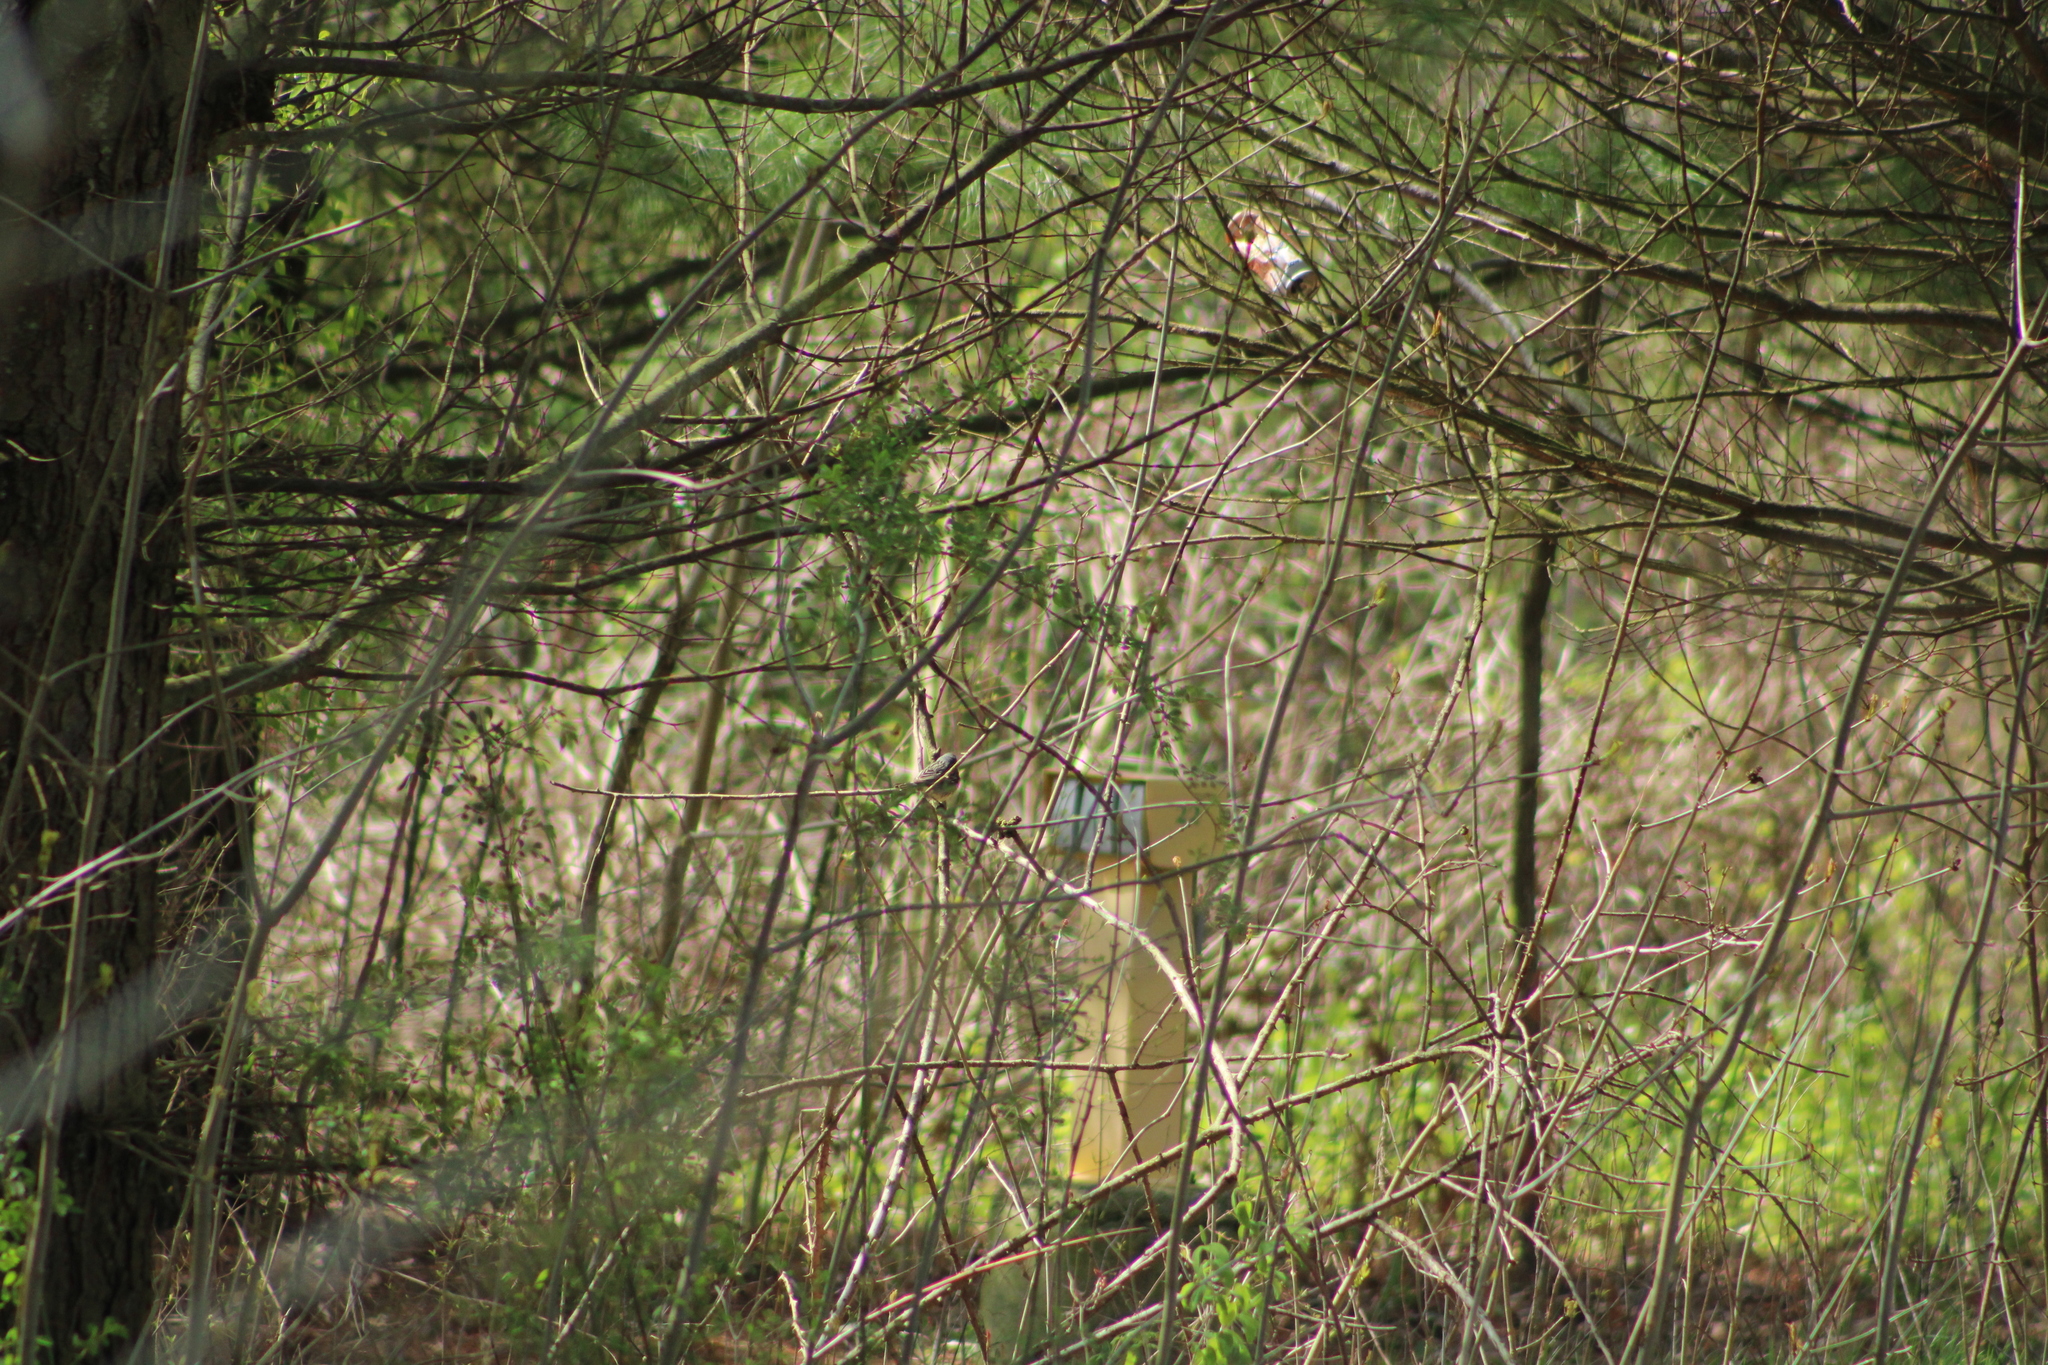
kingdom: Animalia
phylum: Chordata
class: Aves
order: Passeriformes
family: Parulidae
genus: Setophaga
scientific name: Setophaga kirtlandii
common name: Kirtland's warbler
